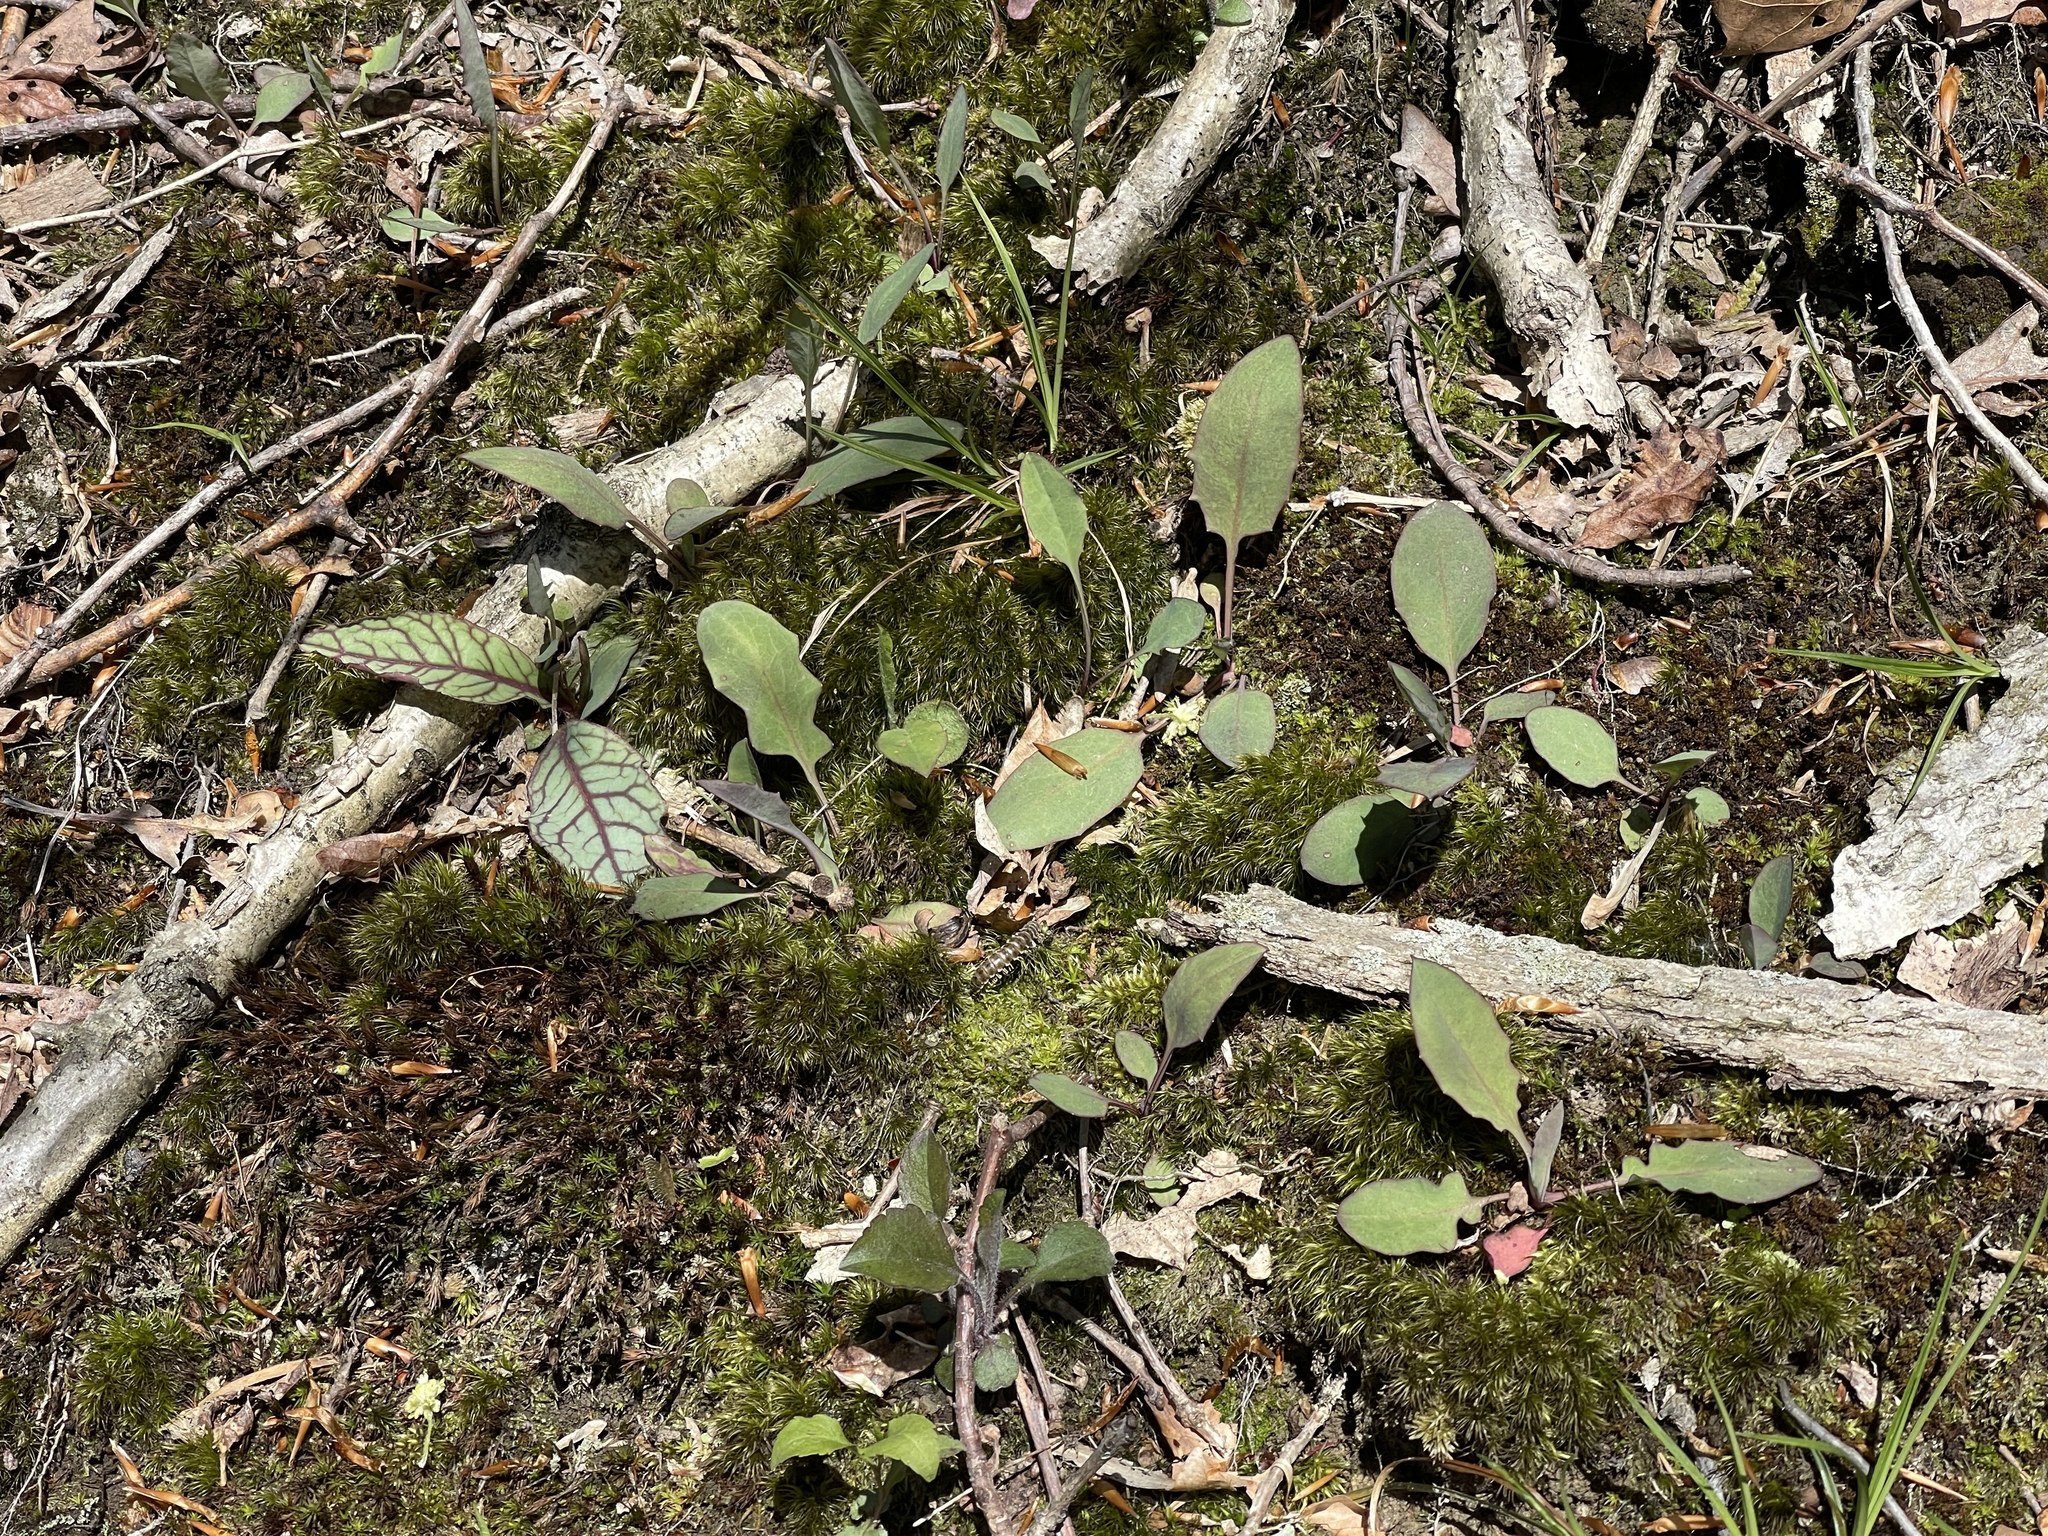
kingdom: Plantae
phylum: Tracheophyta
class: Magnoliopsida
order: Asterales
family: Asteraceae
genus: Hieracium
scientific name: Hieracium venosum
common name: Rattlesnake hawkweed
